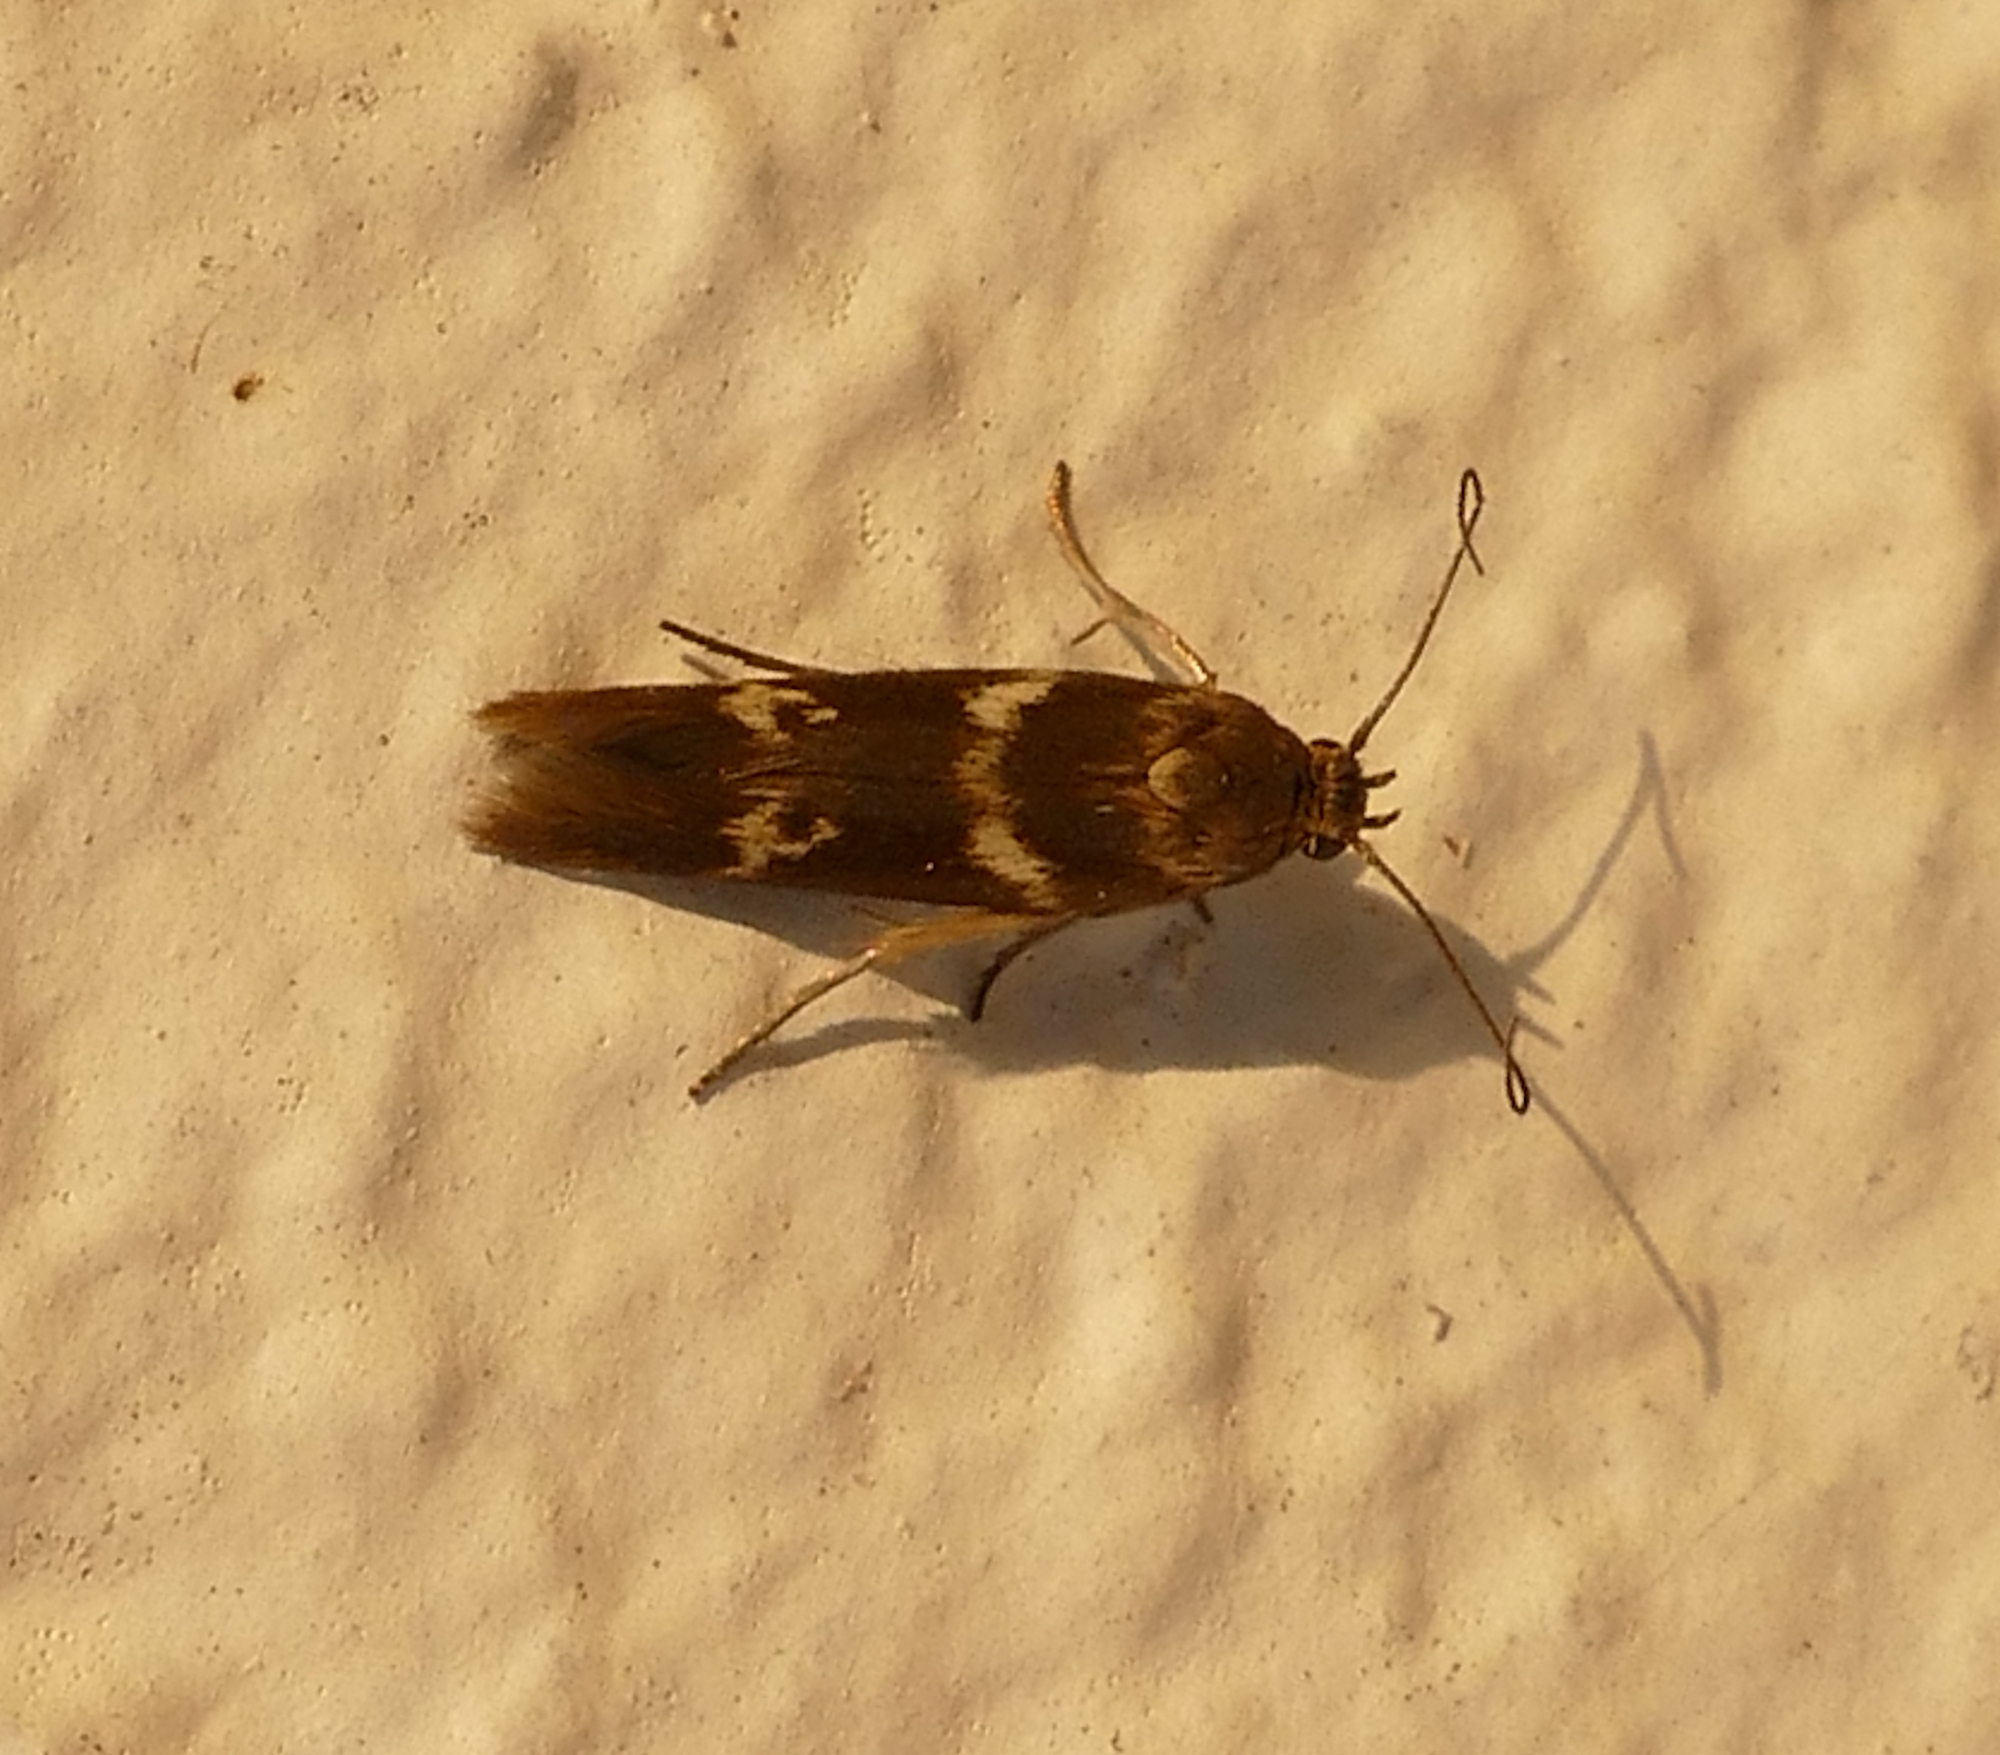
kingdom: Animalia
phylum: Arthropoda
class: Insecta
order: Lepidoptera
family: Scythrididae
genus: Scythris
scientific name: Scythris trivinctella
